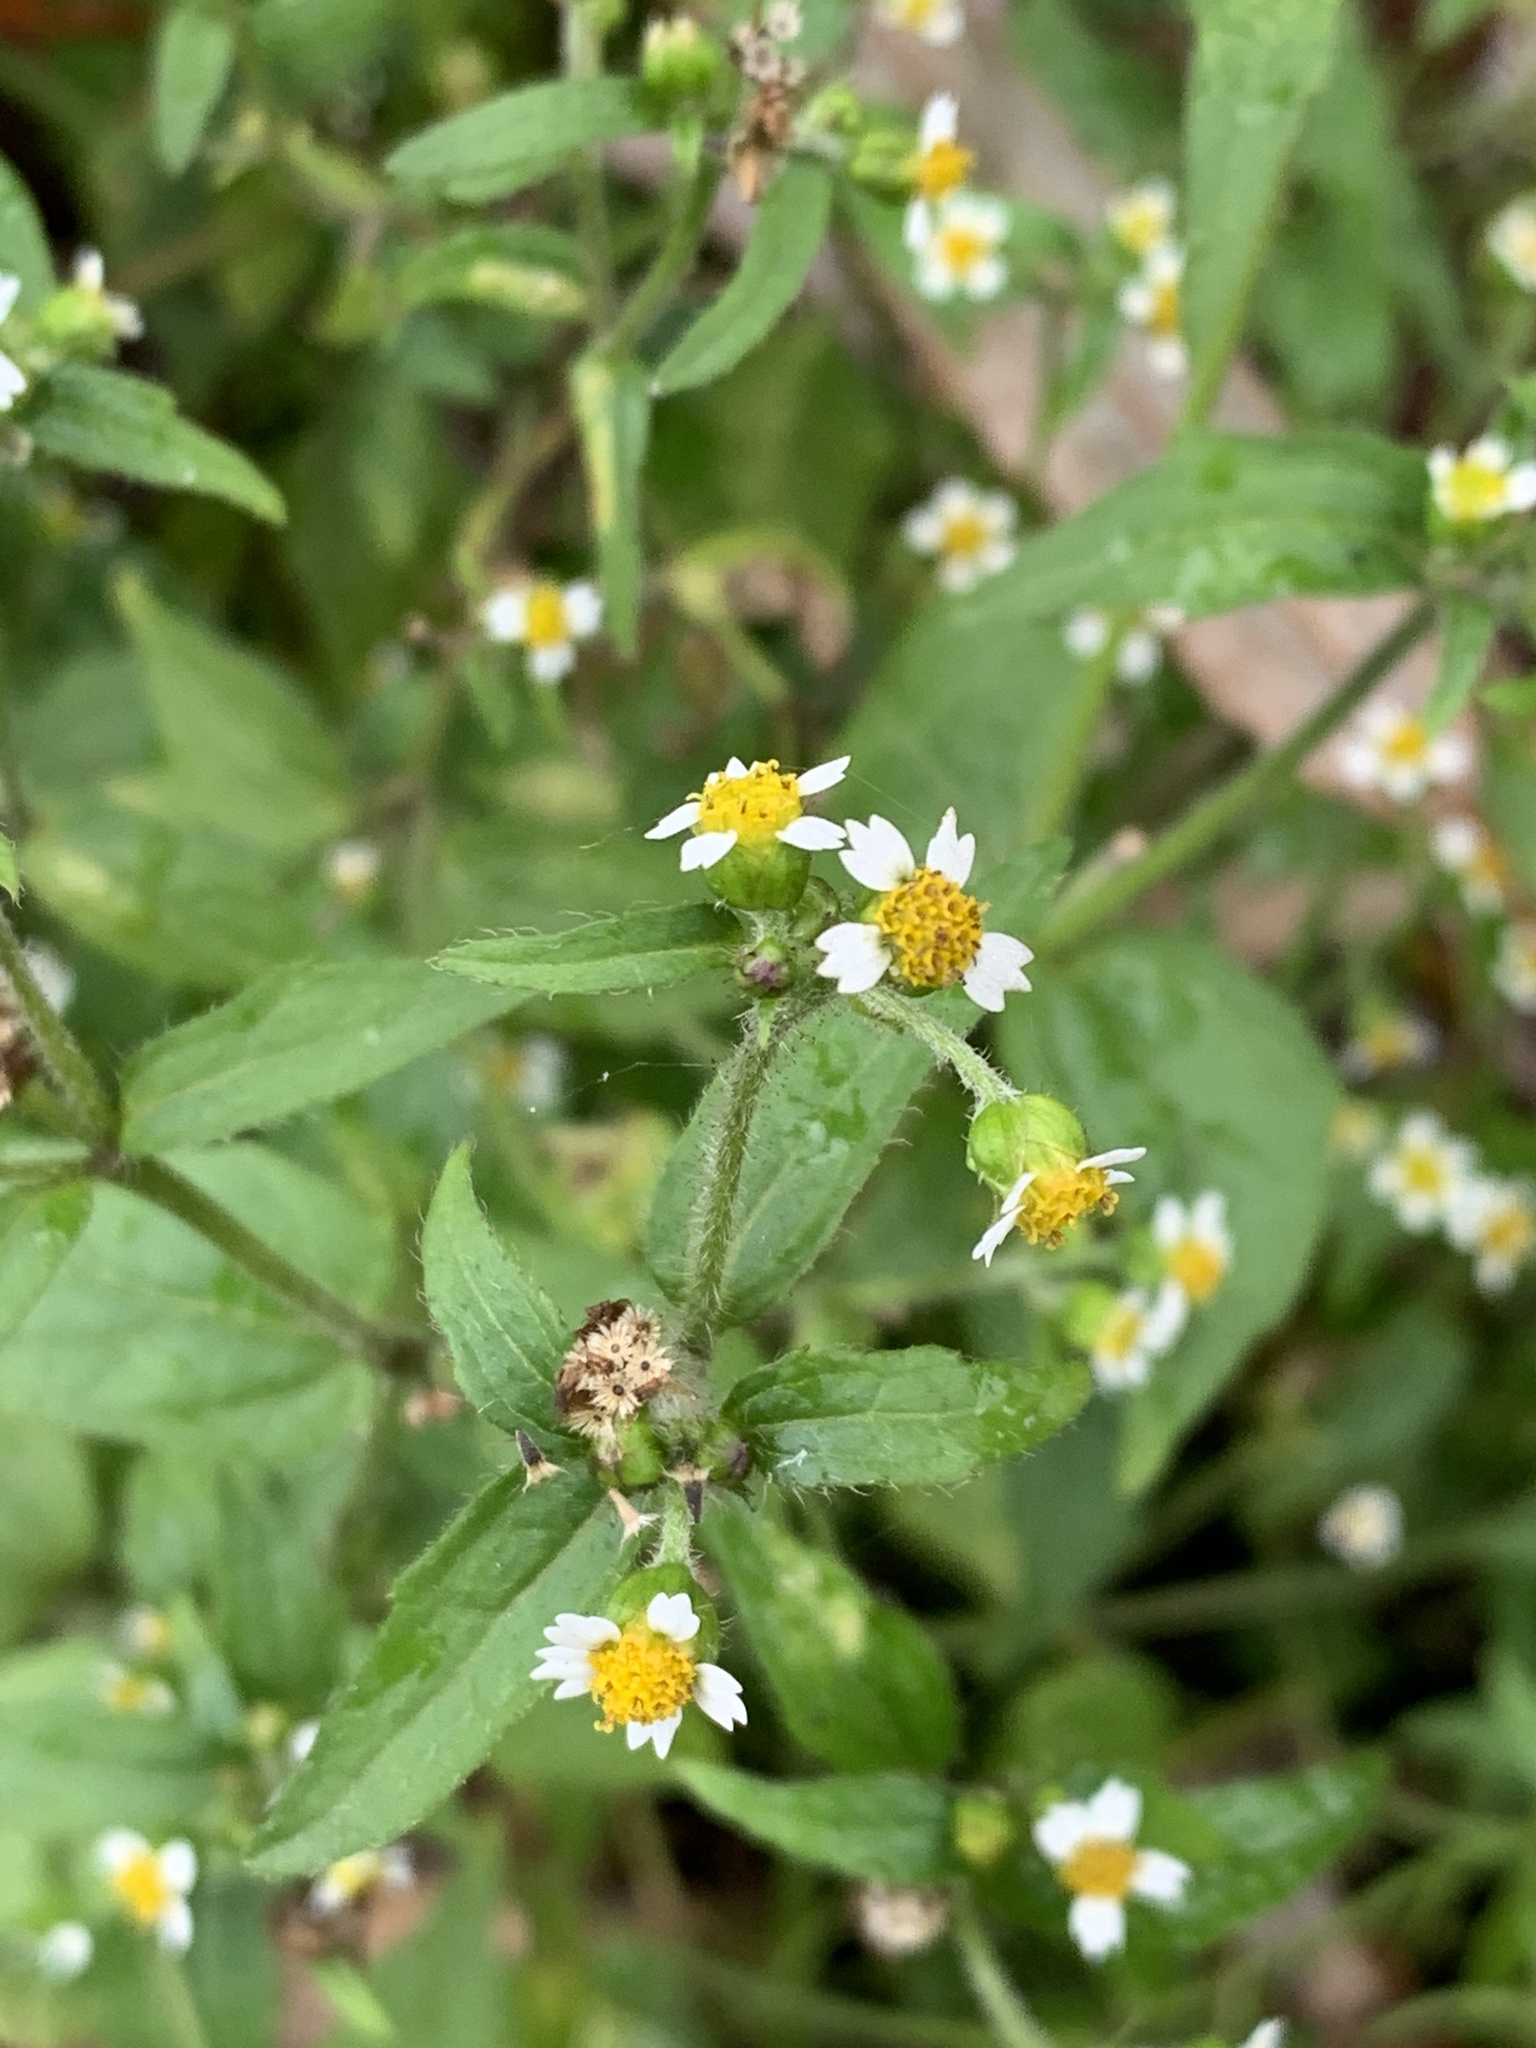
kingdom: Plantae
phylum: Tracheophyta
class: Magnoliopsida
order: Asterales
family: Asteraceae
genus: Galinsoga
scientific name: Galinsoga quadriradiata
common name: Shaggy soldier
